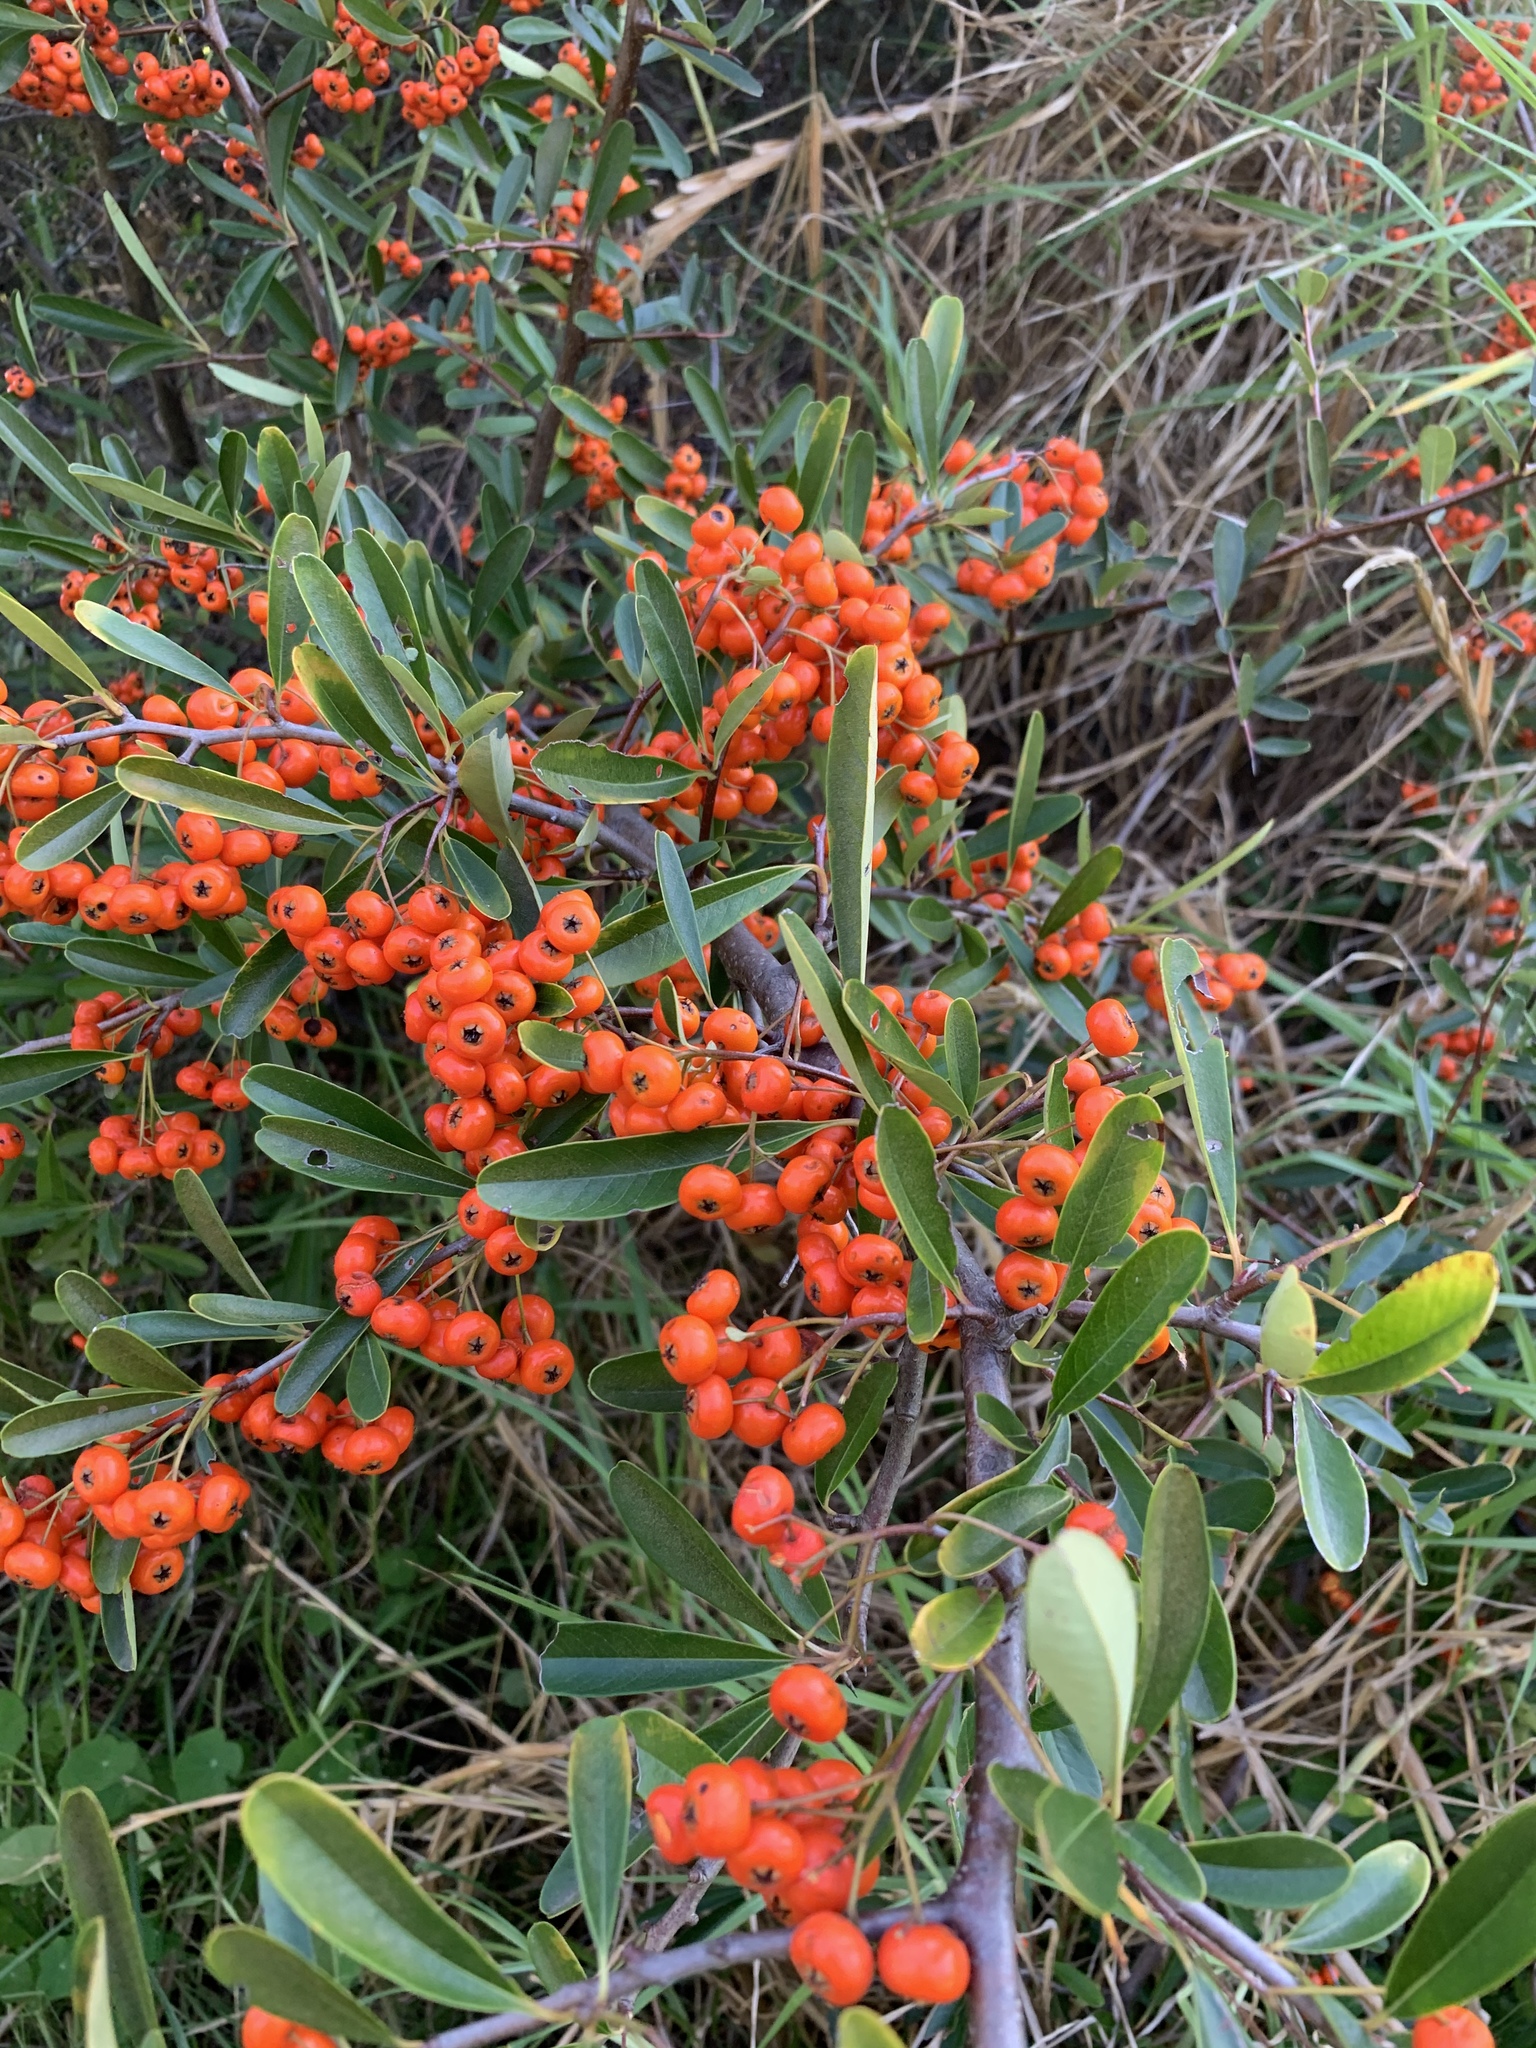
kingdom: Plantae
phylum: Tracheophyta
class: Magnoliopsida
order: Rosales
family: Rosaceae
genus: Pyracantha
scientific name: Pyracantha angustifolia
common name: Narrowleaf firethorn
